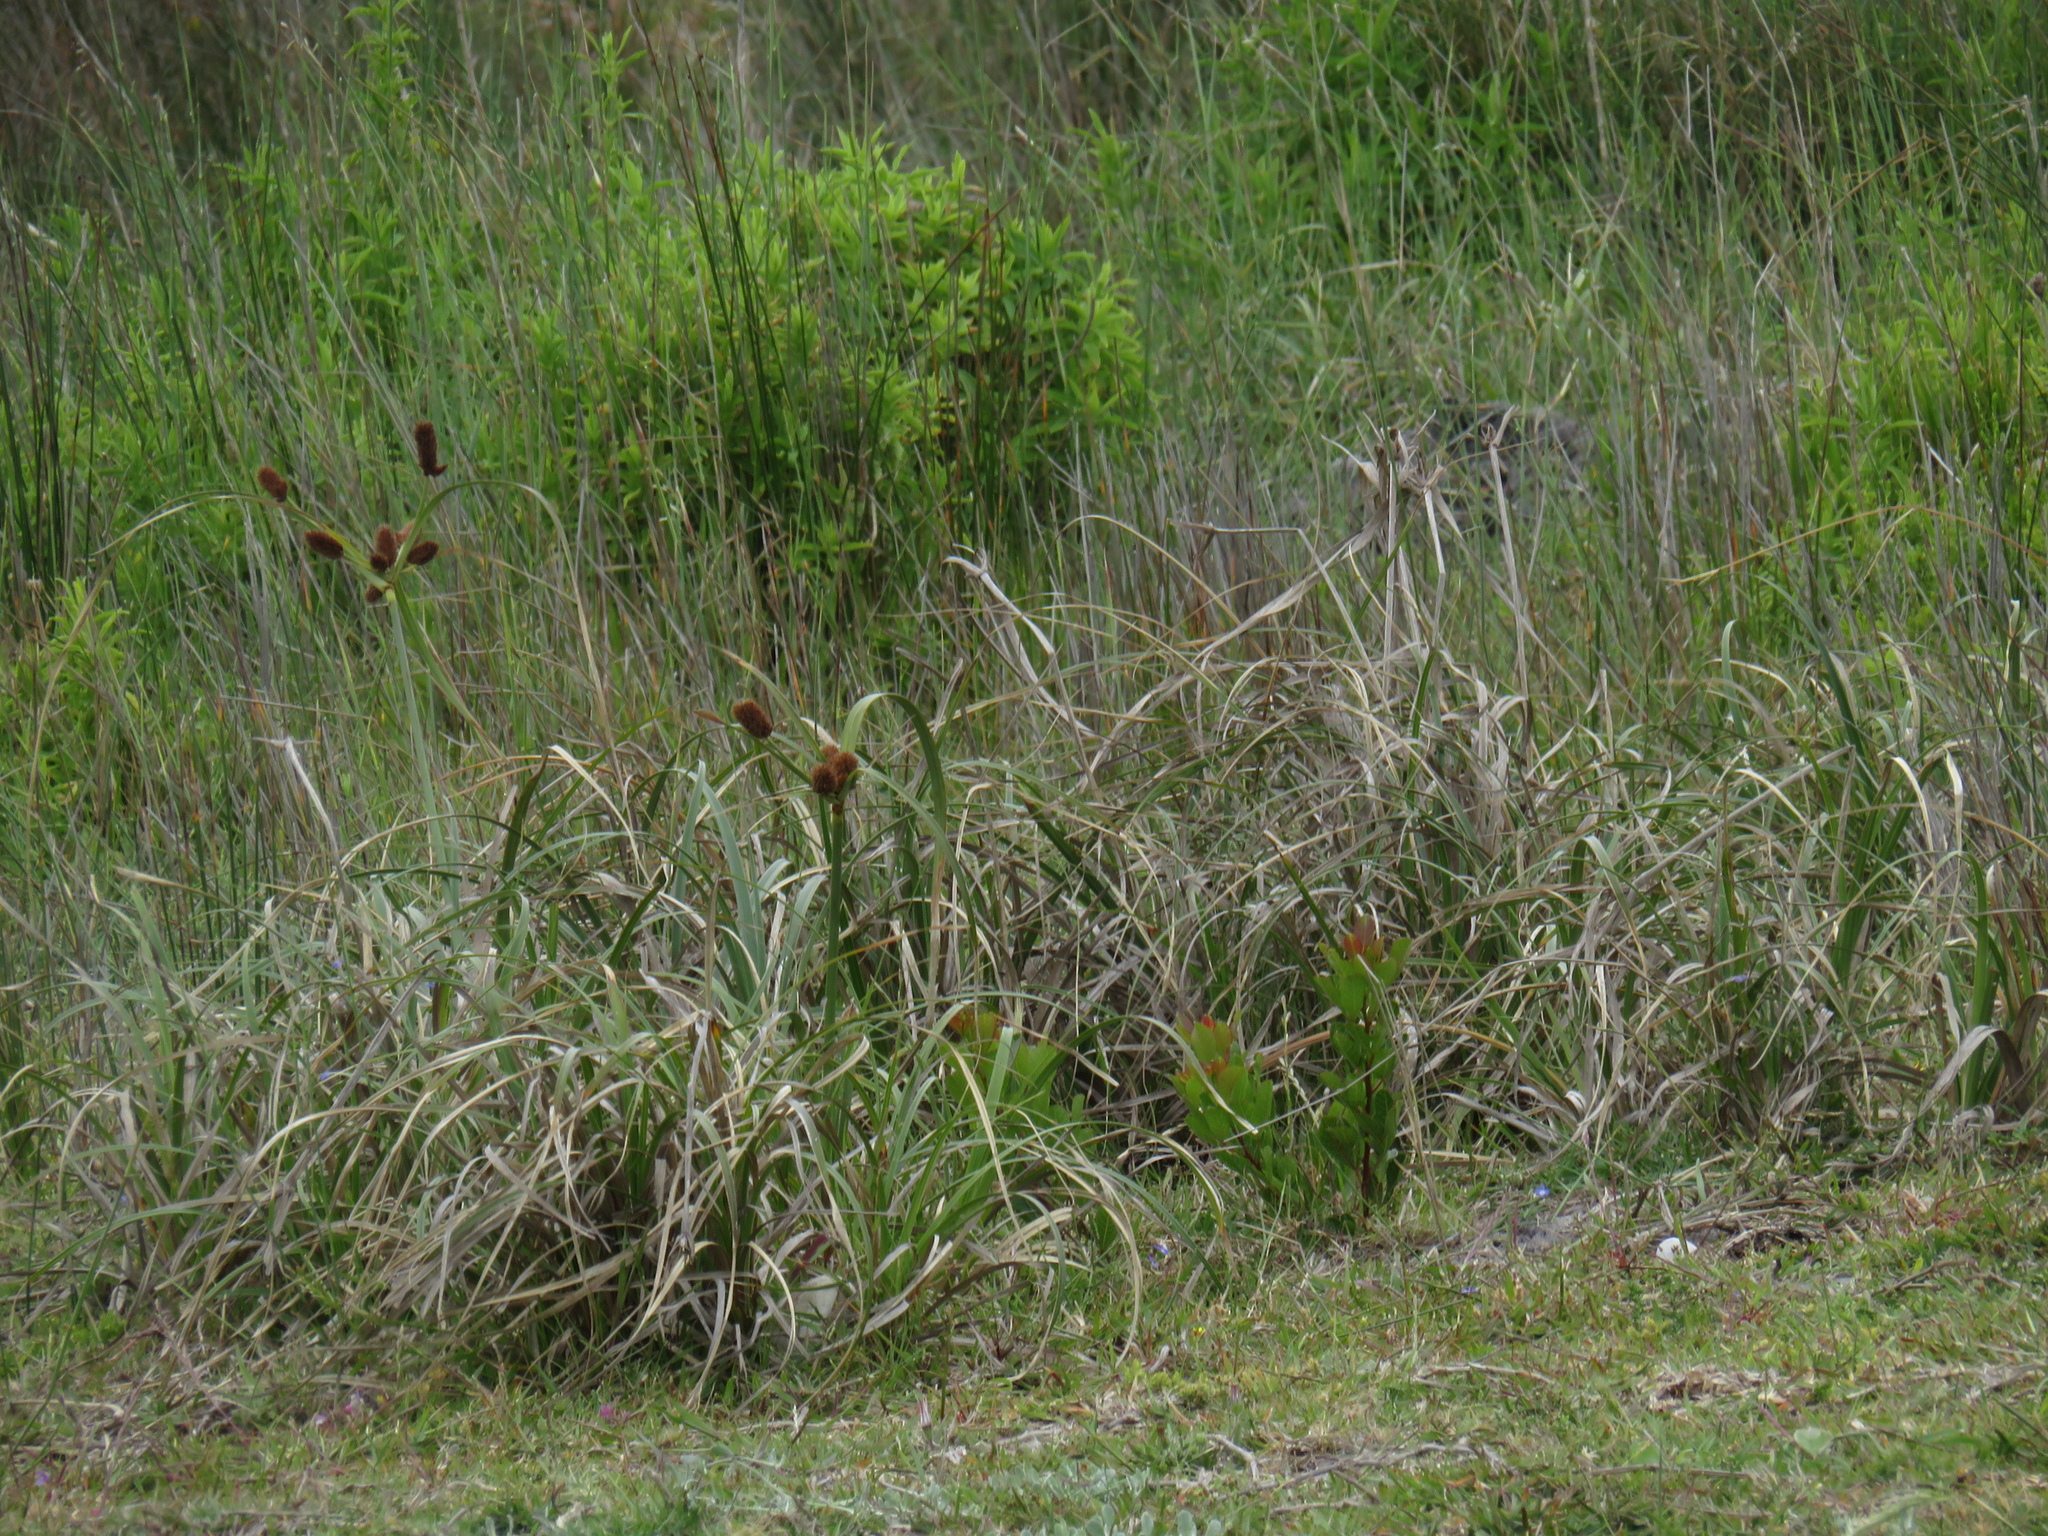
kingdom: Plantae
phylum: Tracheophyta
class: Liliopsida
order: Poales
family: Cyperaceae
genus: Cyperus
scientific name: Cyperus thunbergii
